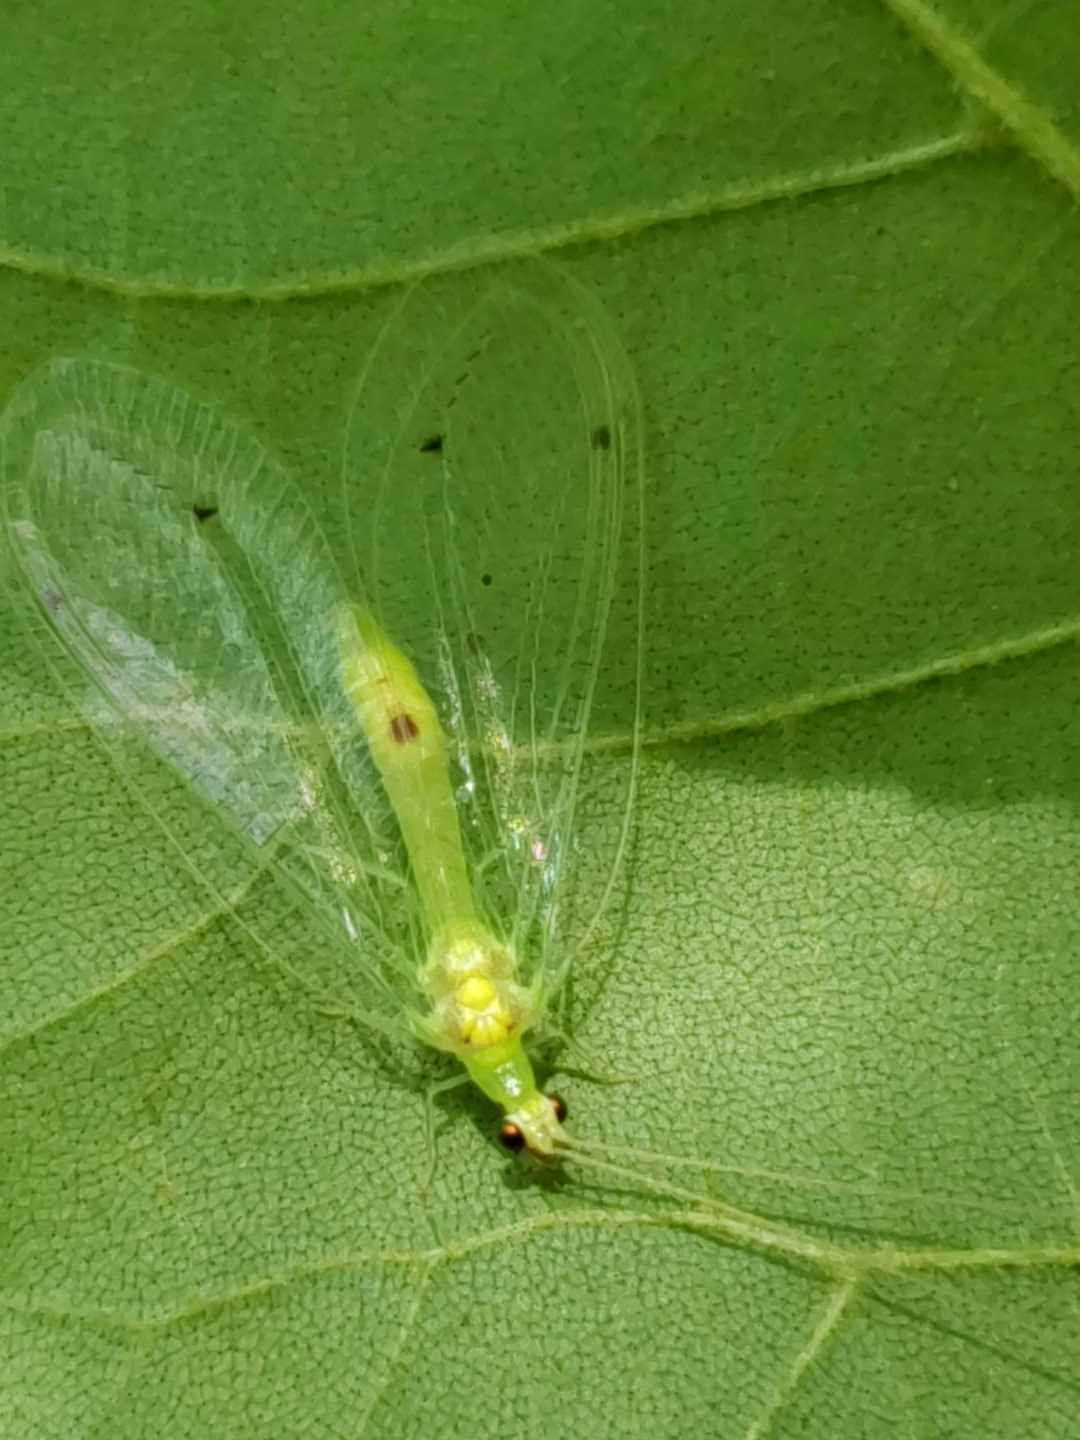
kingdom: Animalia
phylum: Arthropoda
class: Insecta
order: Neuroptera
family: Chrysopidae
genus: Leucochrysa
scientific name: Leucochrysa insularis
